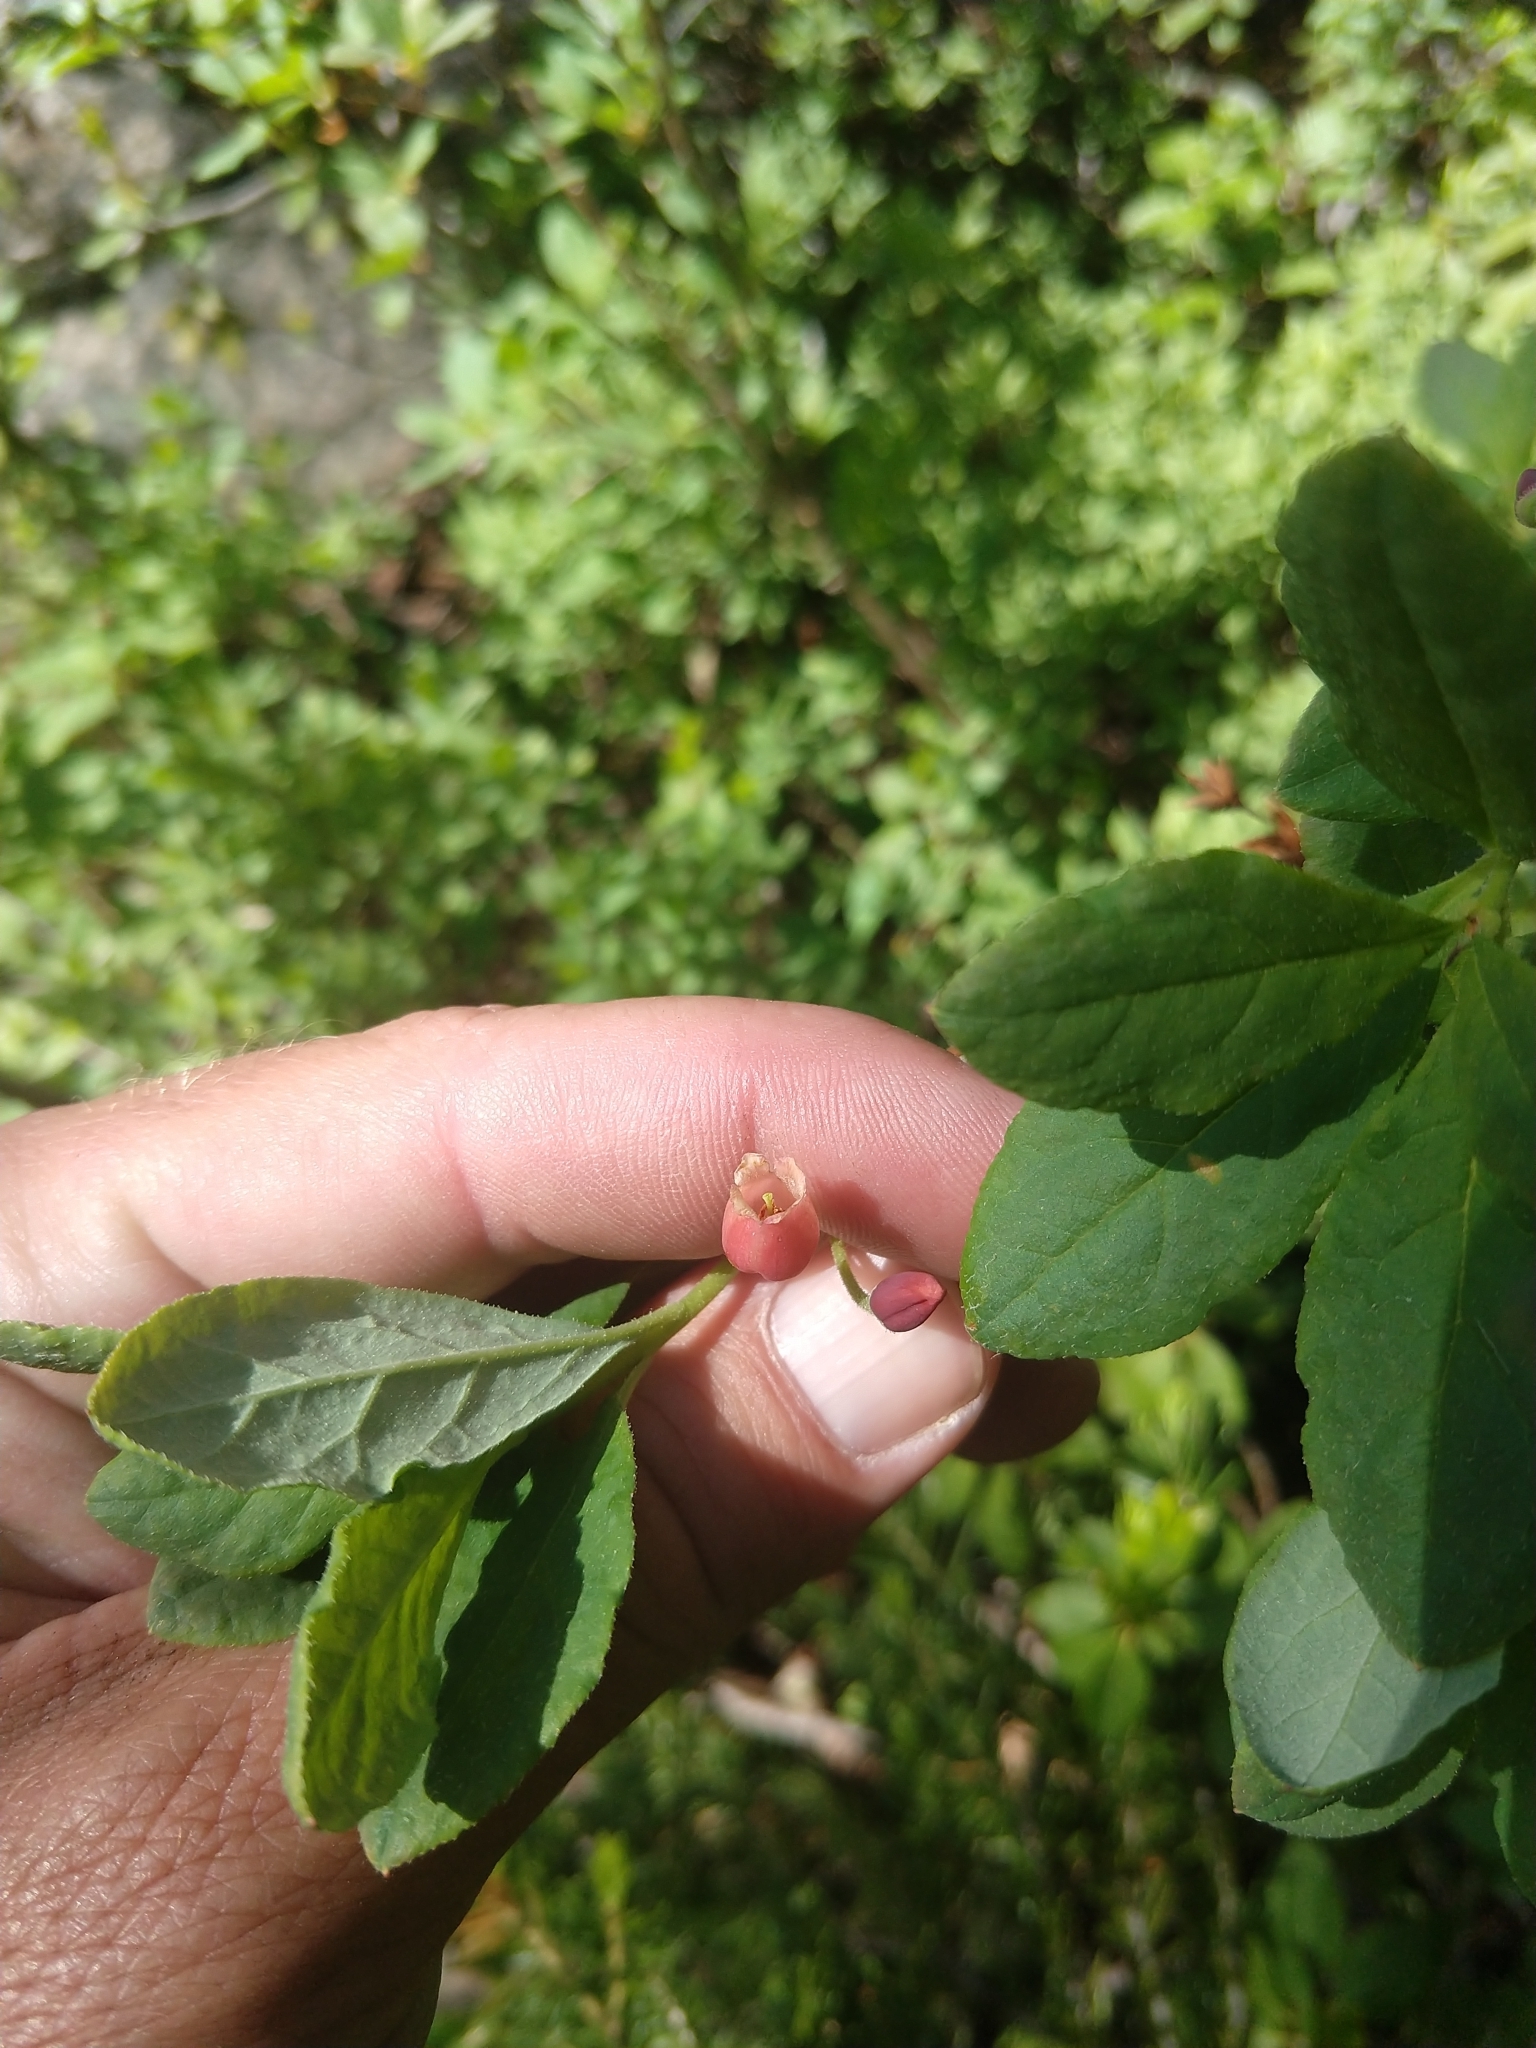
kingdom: Plantae
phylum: Tracheophyta
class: Magnoliopsida
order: Ericales
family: Ericaceae
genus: Rhododendron
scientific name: Rhododendron menziesii
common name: Pacific menziesia
